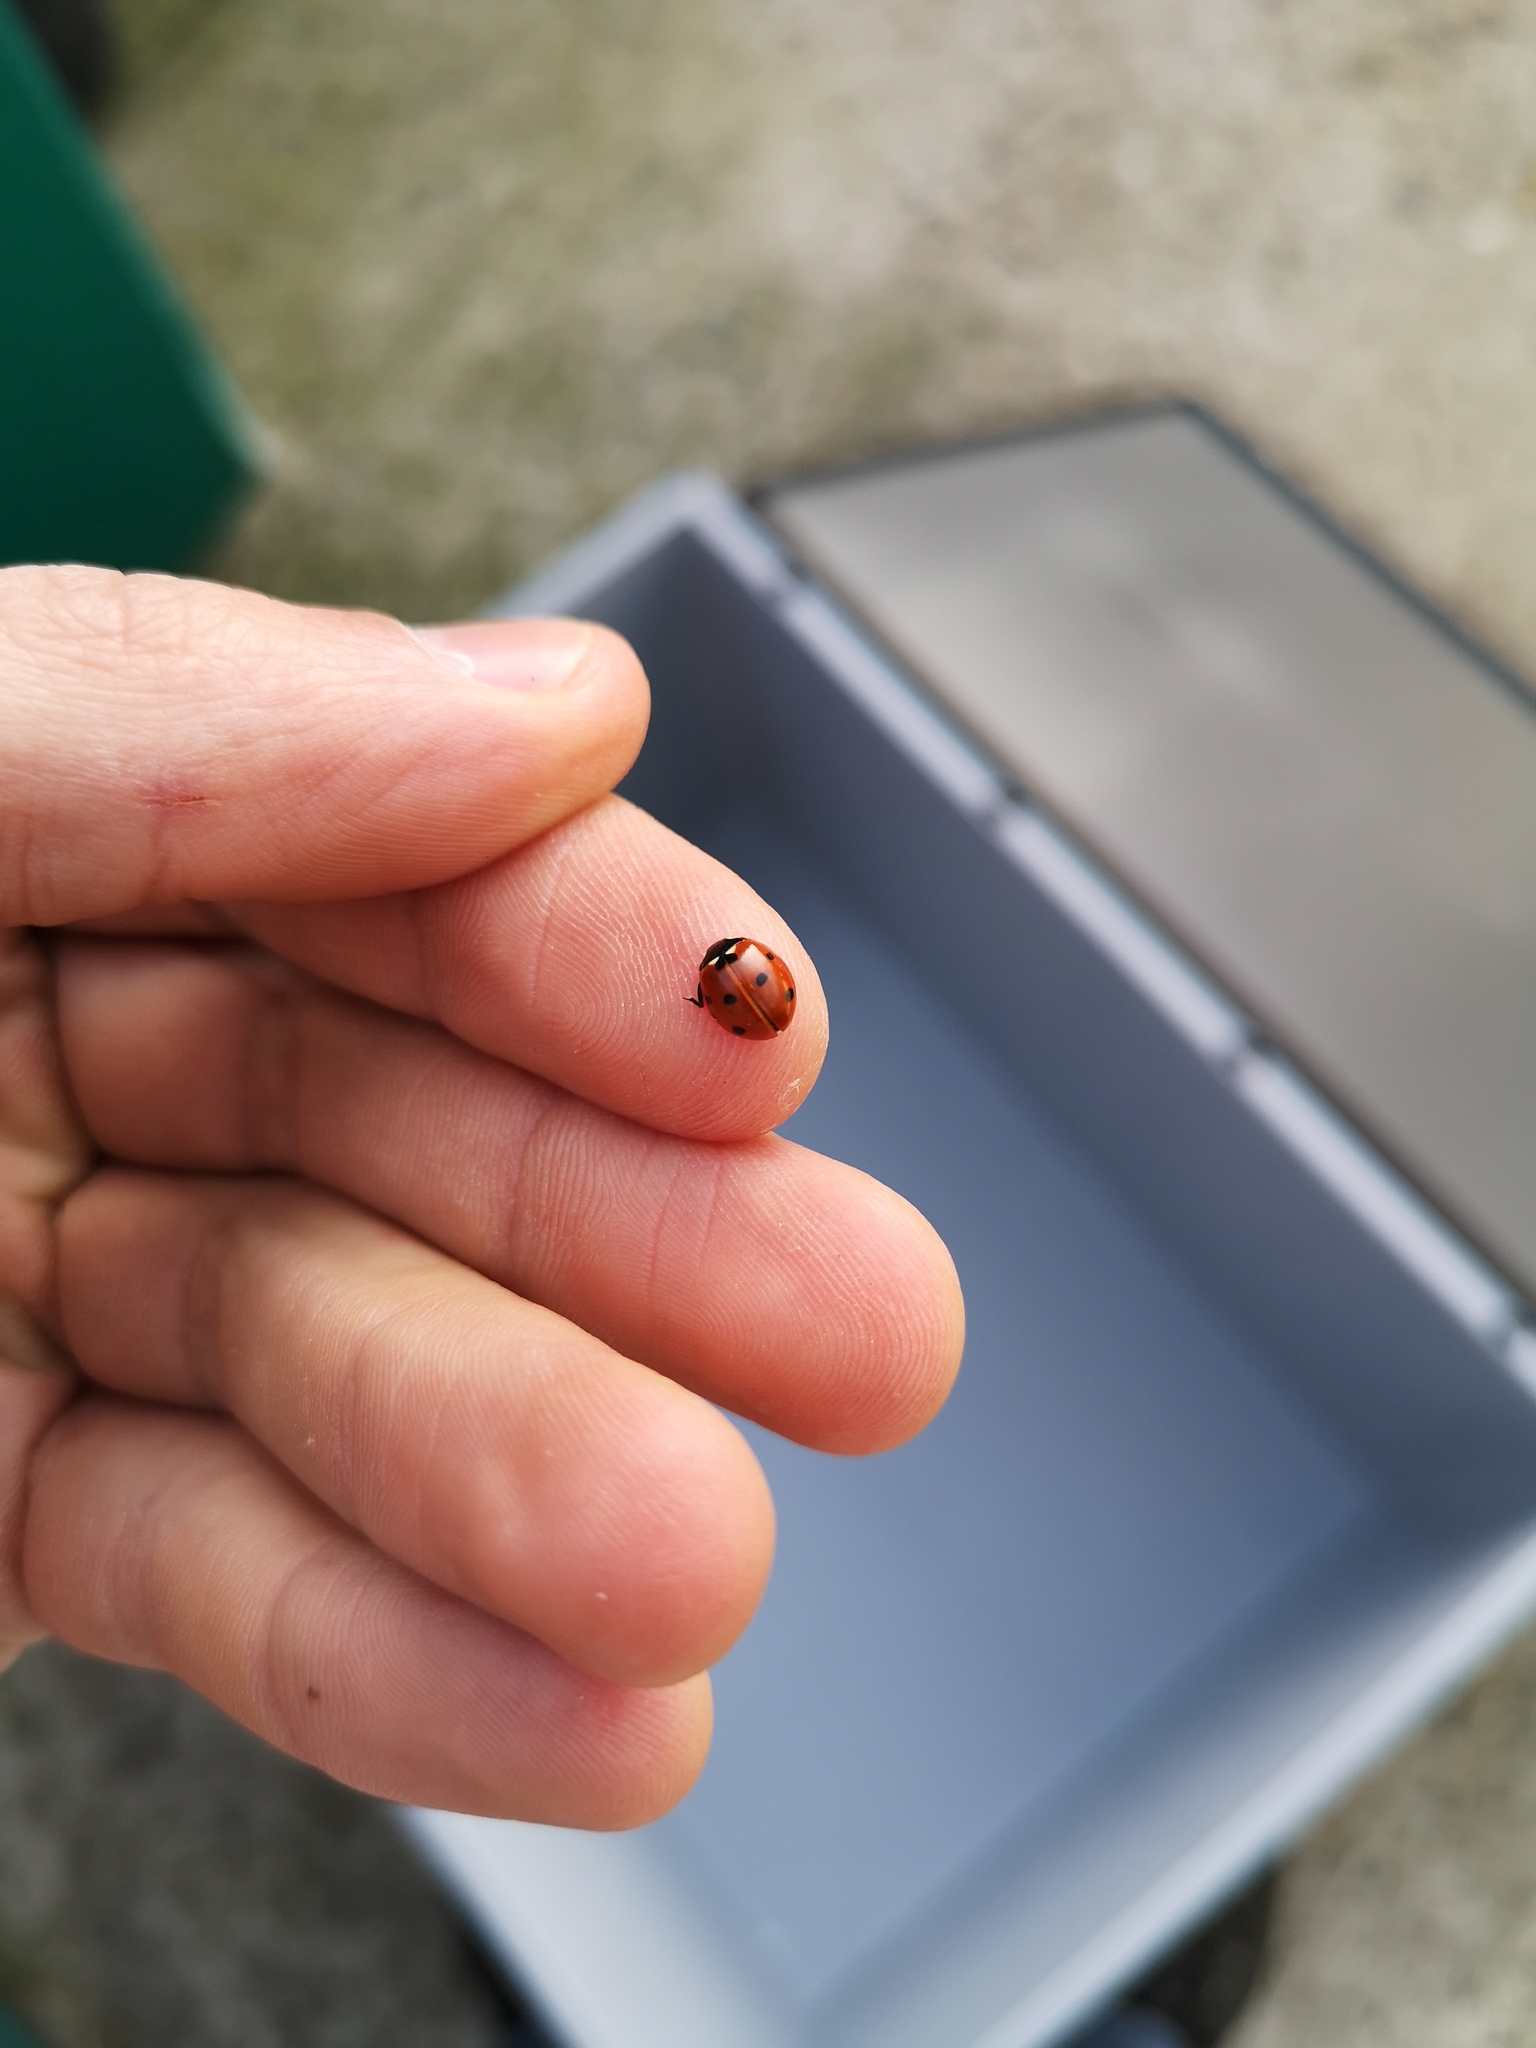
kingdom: Animalia
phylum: Arthropoda
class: Insecta
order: Coleoptera
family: Coccinellidae
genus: Coccinella
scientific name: Coccinella septempunctata
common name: Sevenspotted lady beetle
